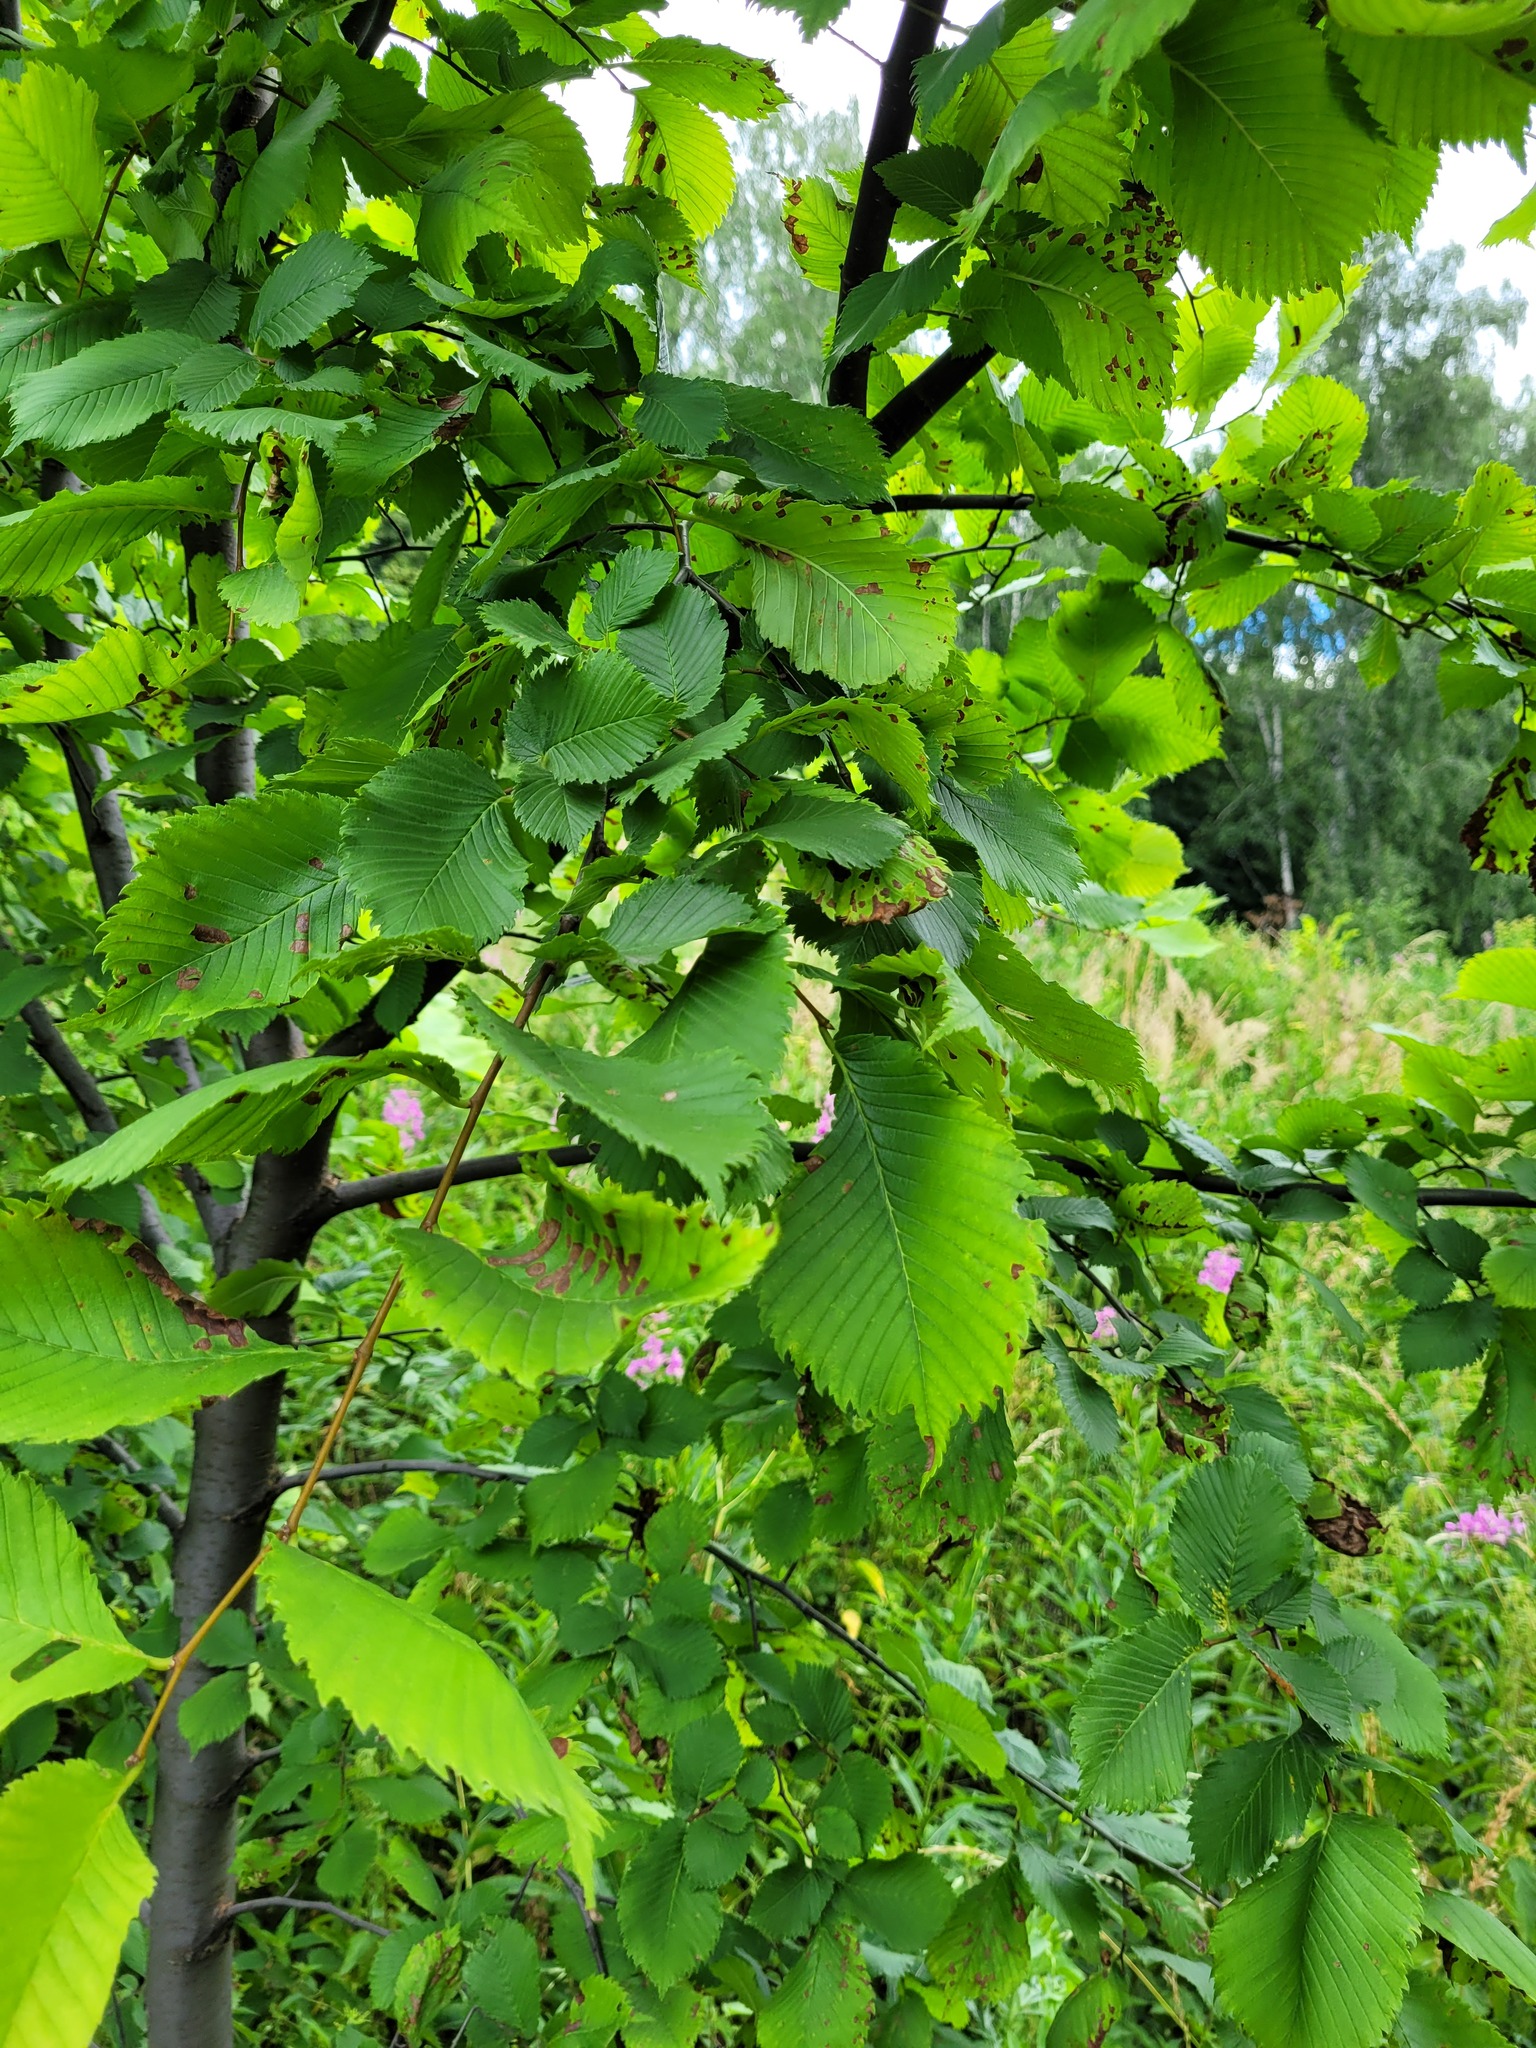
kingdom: Plantae
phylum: Tracheophyta
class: Magnoliopsida
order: Rosales
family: Ulmaceae
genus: Ulmus
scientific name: Ulmus laevis
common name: European white-elm
